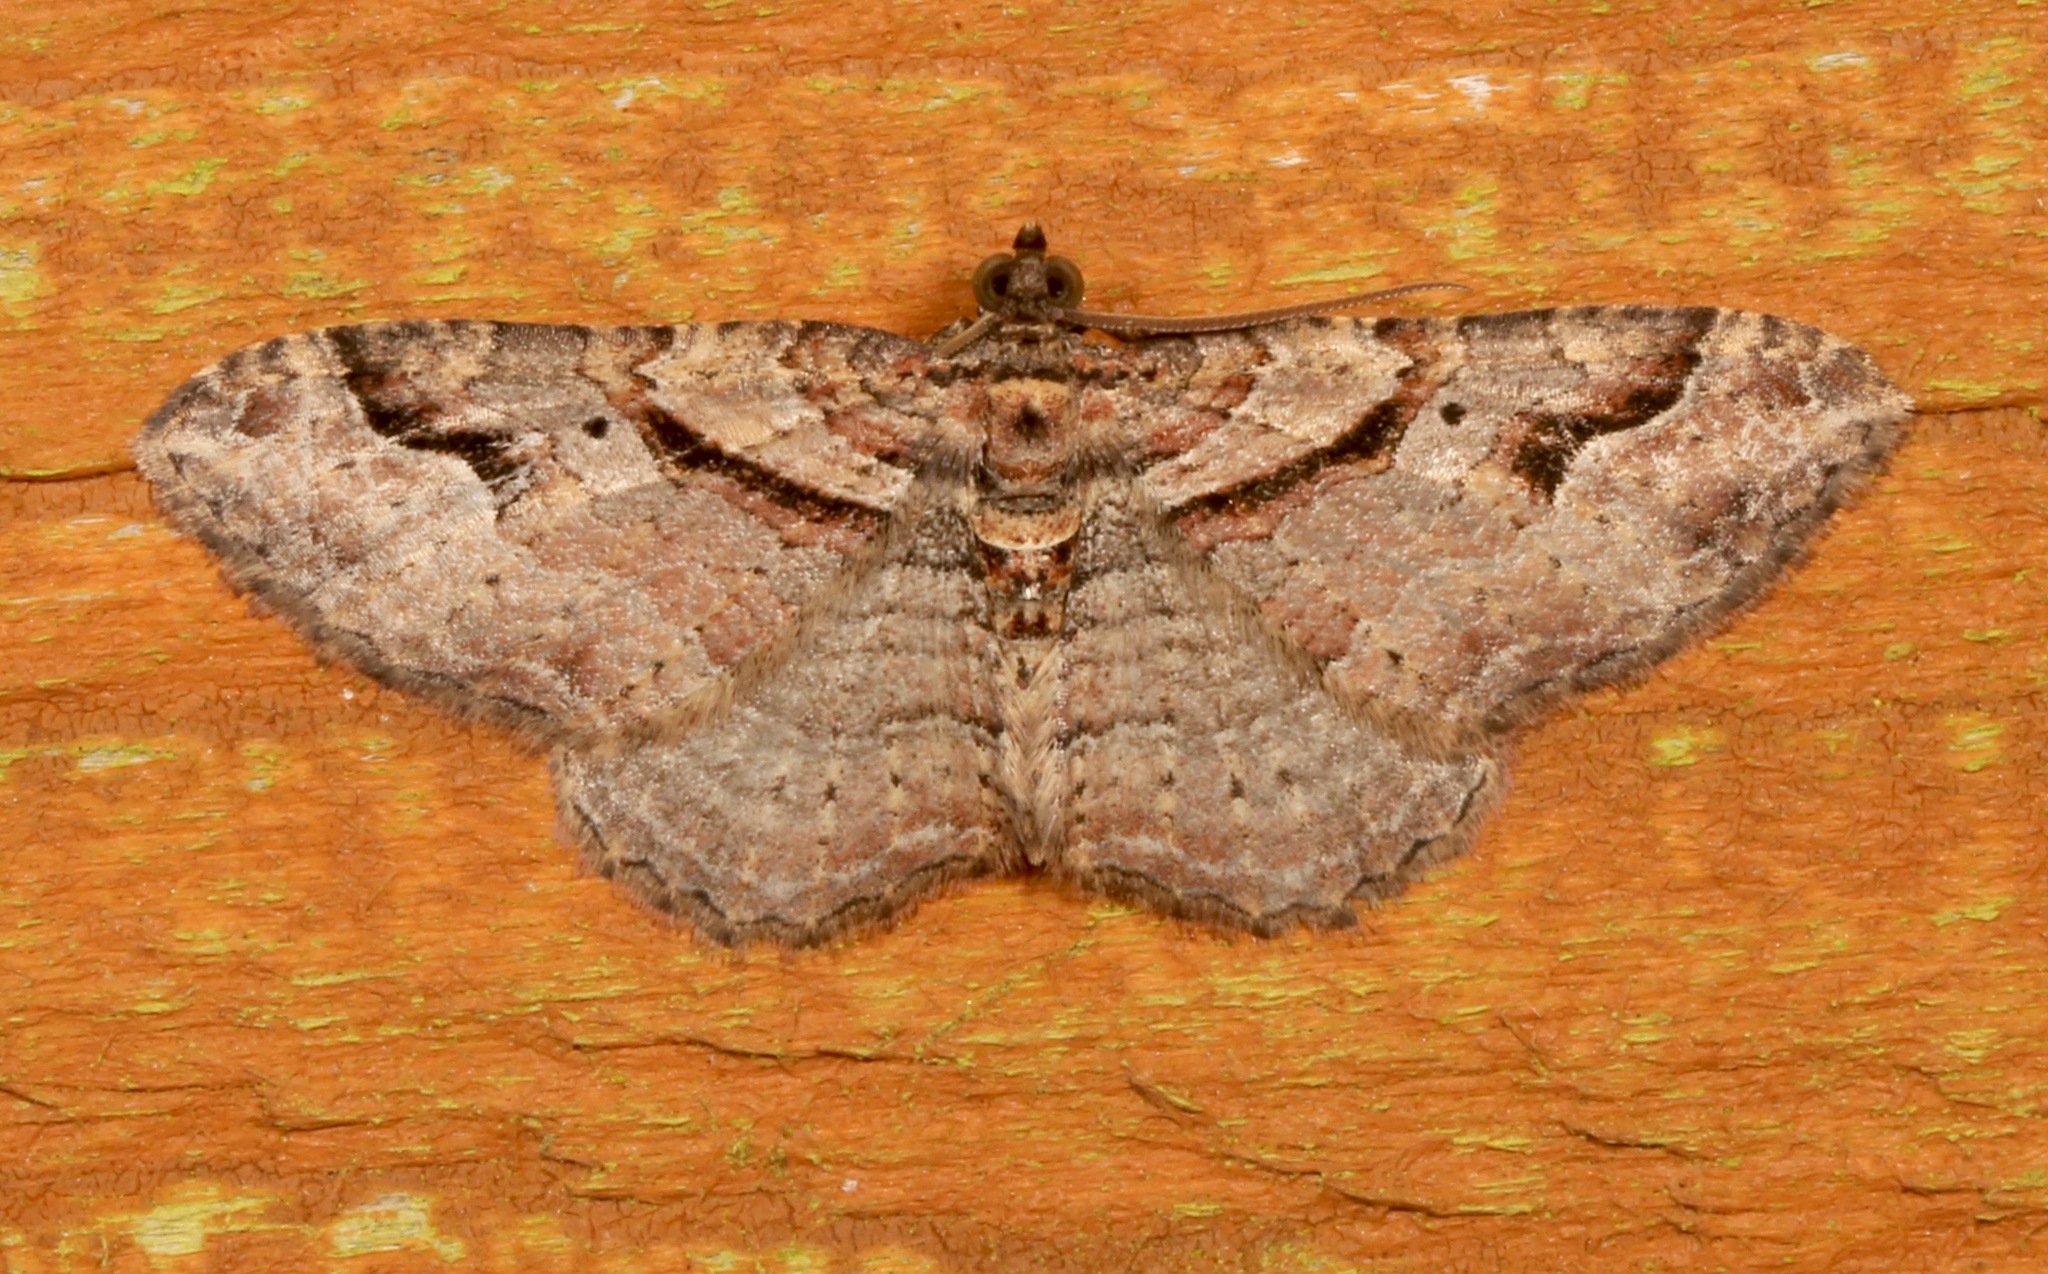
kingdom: Animalia
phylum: Arthropoda
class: Insecta
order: Lepidoptera
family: Geometridae
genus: Costaconvexa
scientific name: Costaconvexa centrostrigaria
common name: Bent-line carpet
